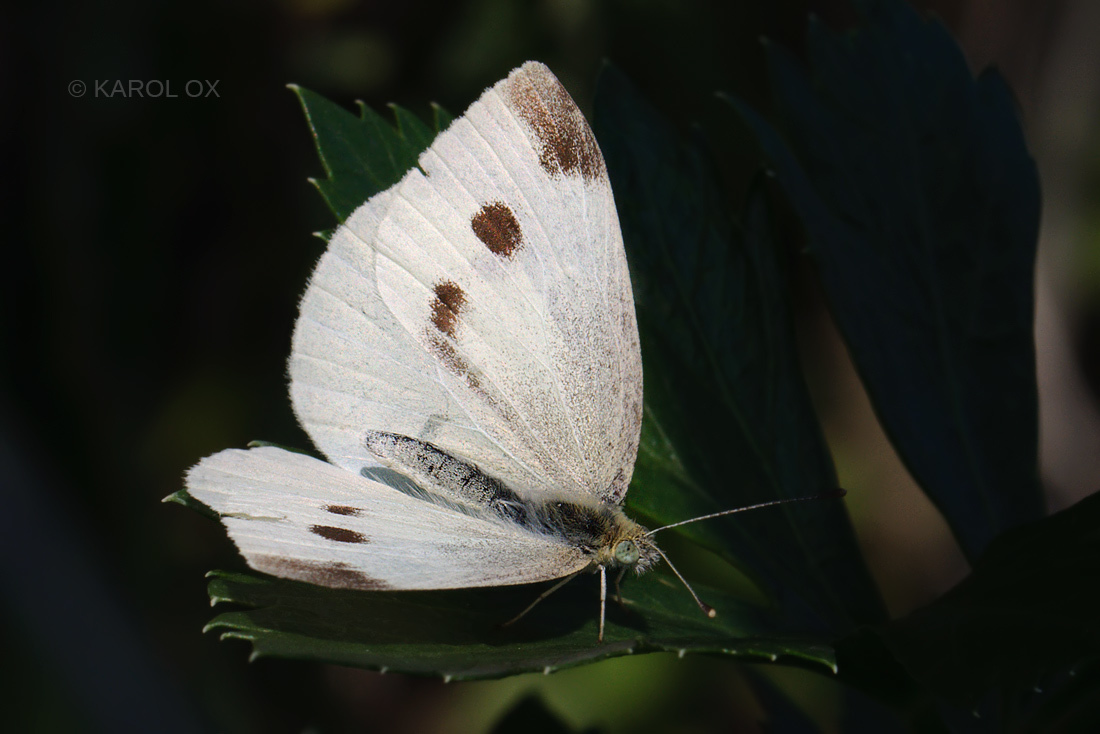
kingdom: Animalia
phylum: Arthropoda
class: Insecta
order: Lepidoptera
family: Pieridae
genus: Pieris
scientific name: Pieris rapae
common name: Small white
